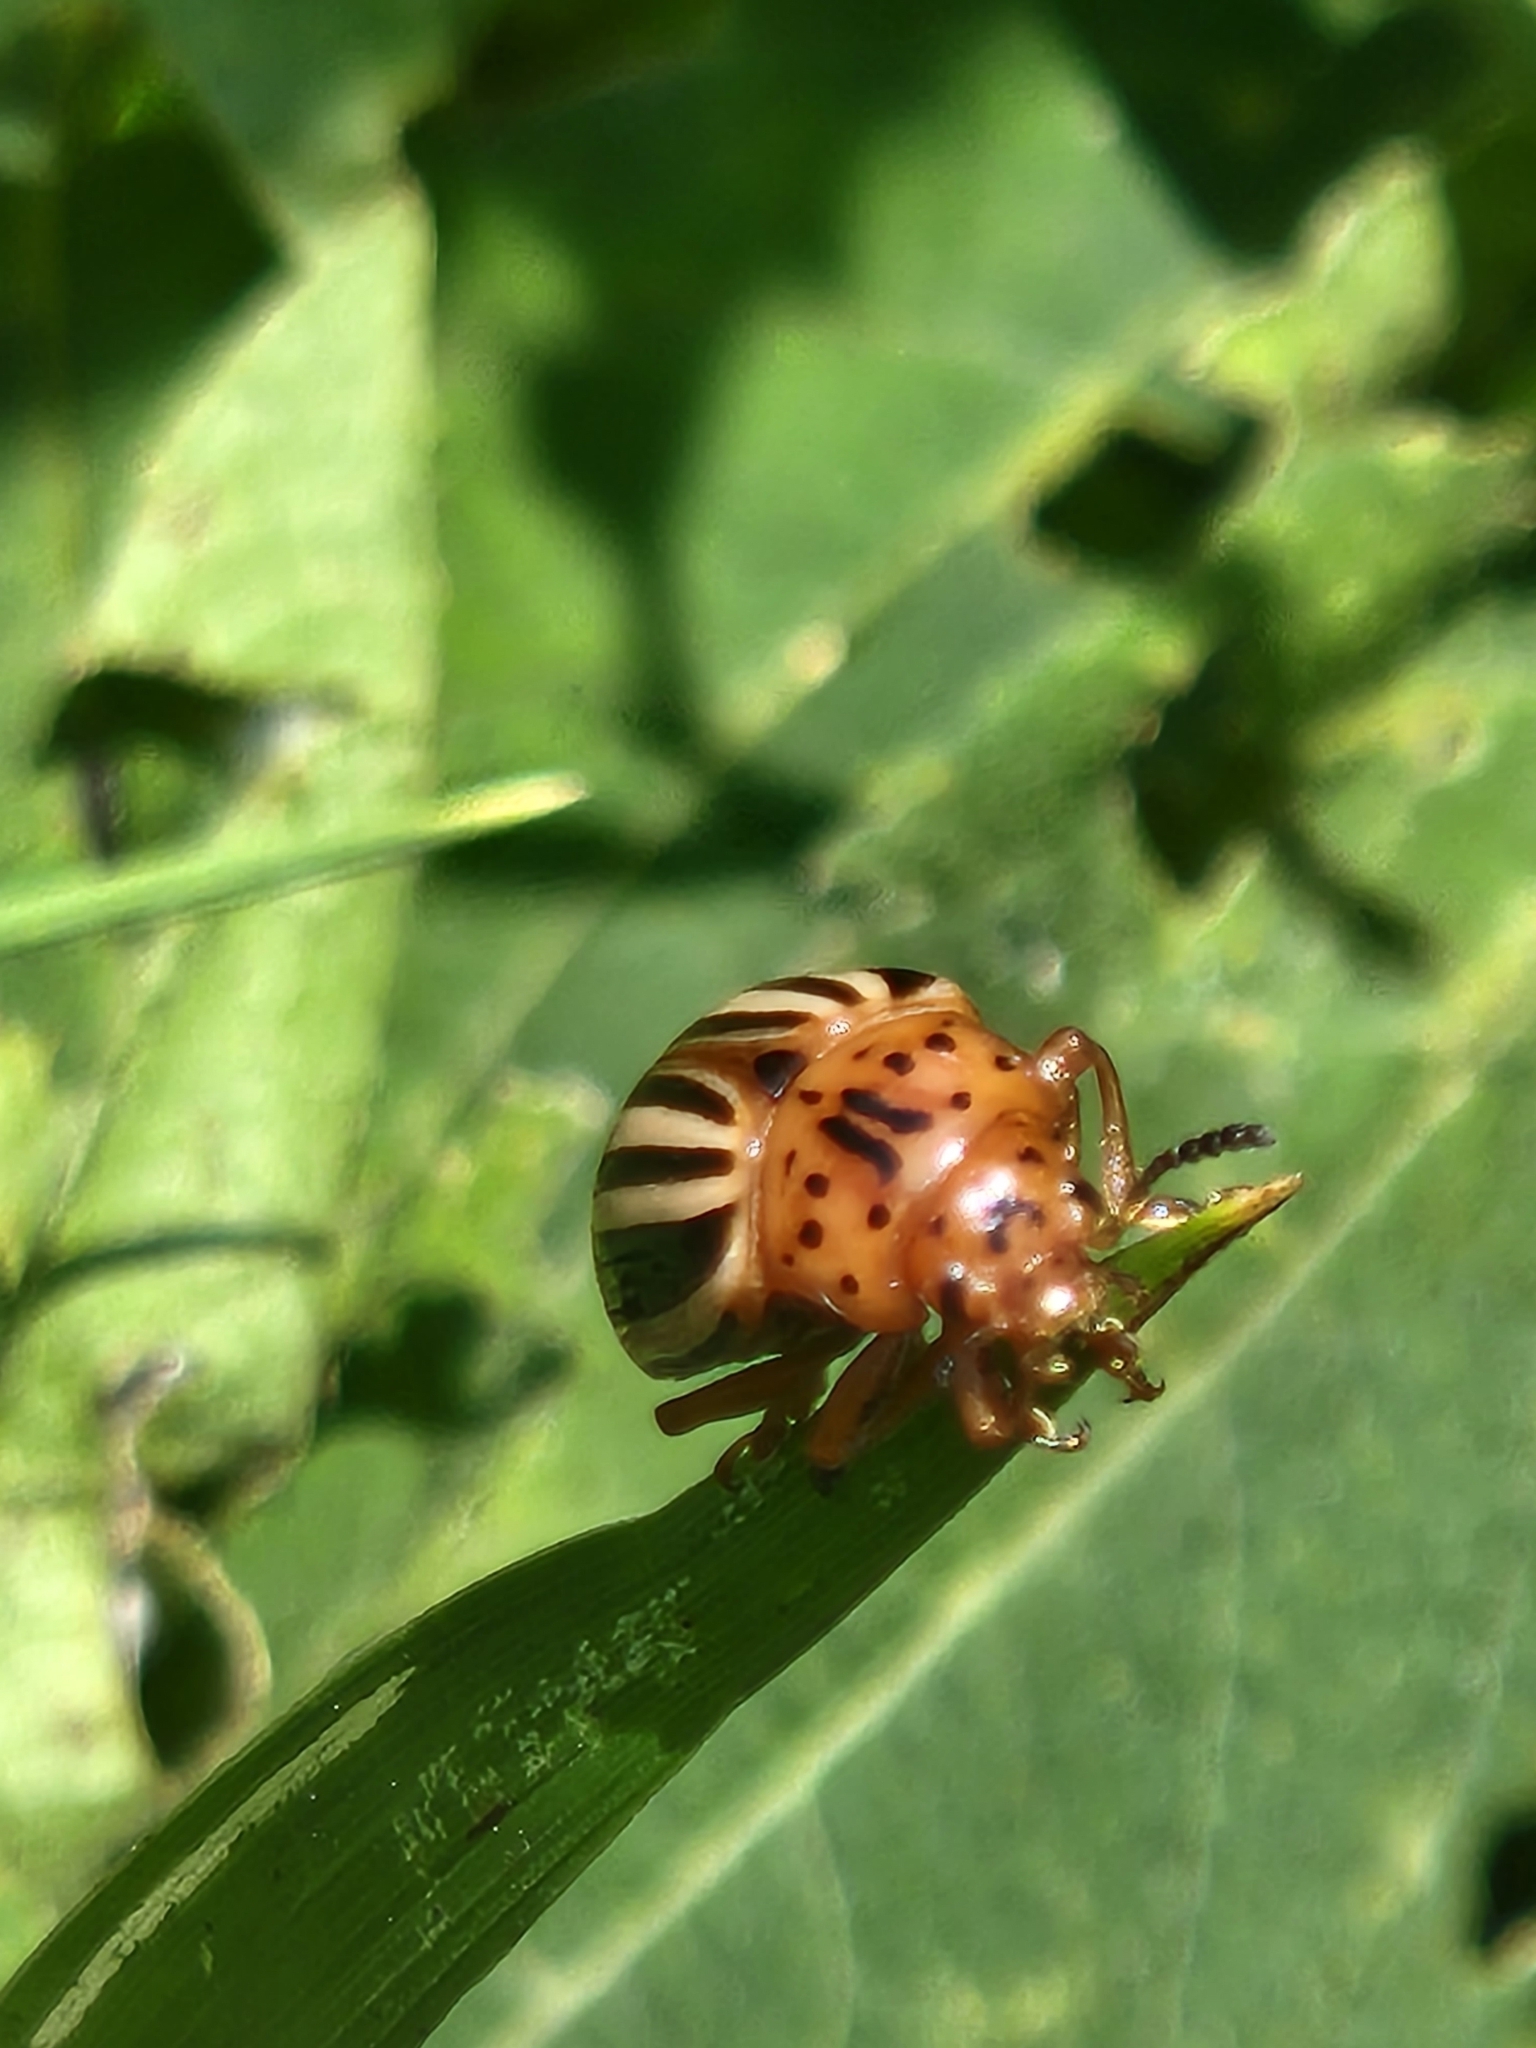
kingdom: Animalia
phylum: Arthropoda
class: Insecta
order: Coleoptera
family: Chrysomelidae
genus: Leptinotarsa
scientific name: Leptinotarsa juncta
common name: False potato beetle
